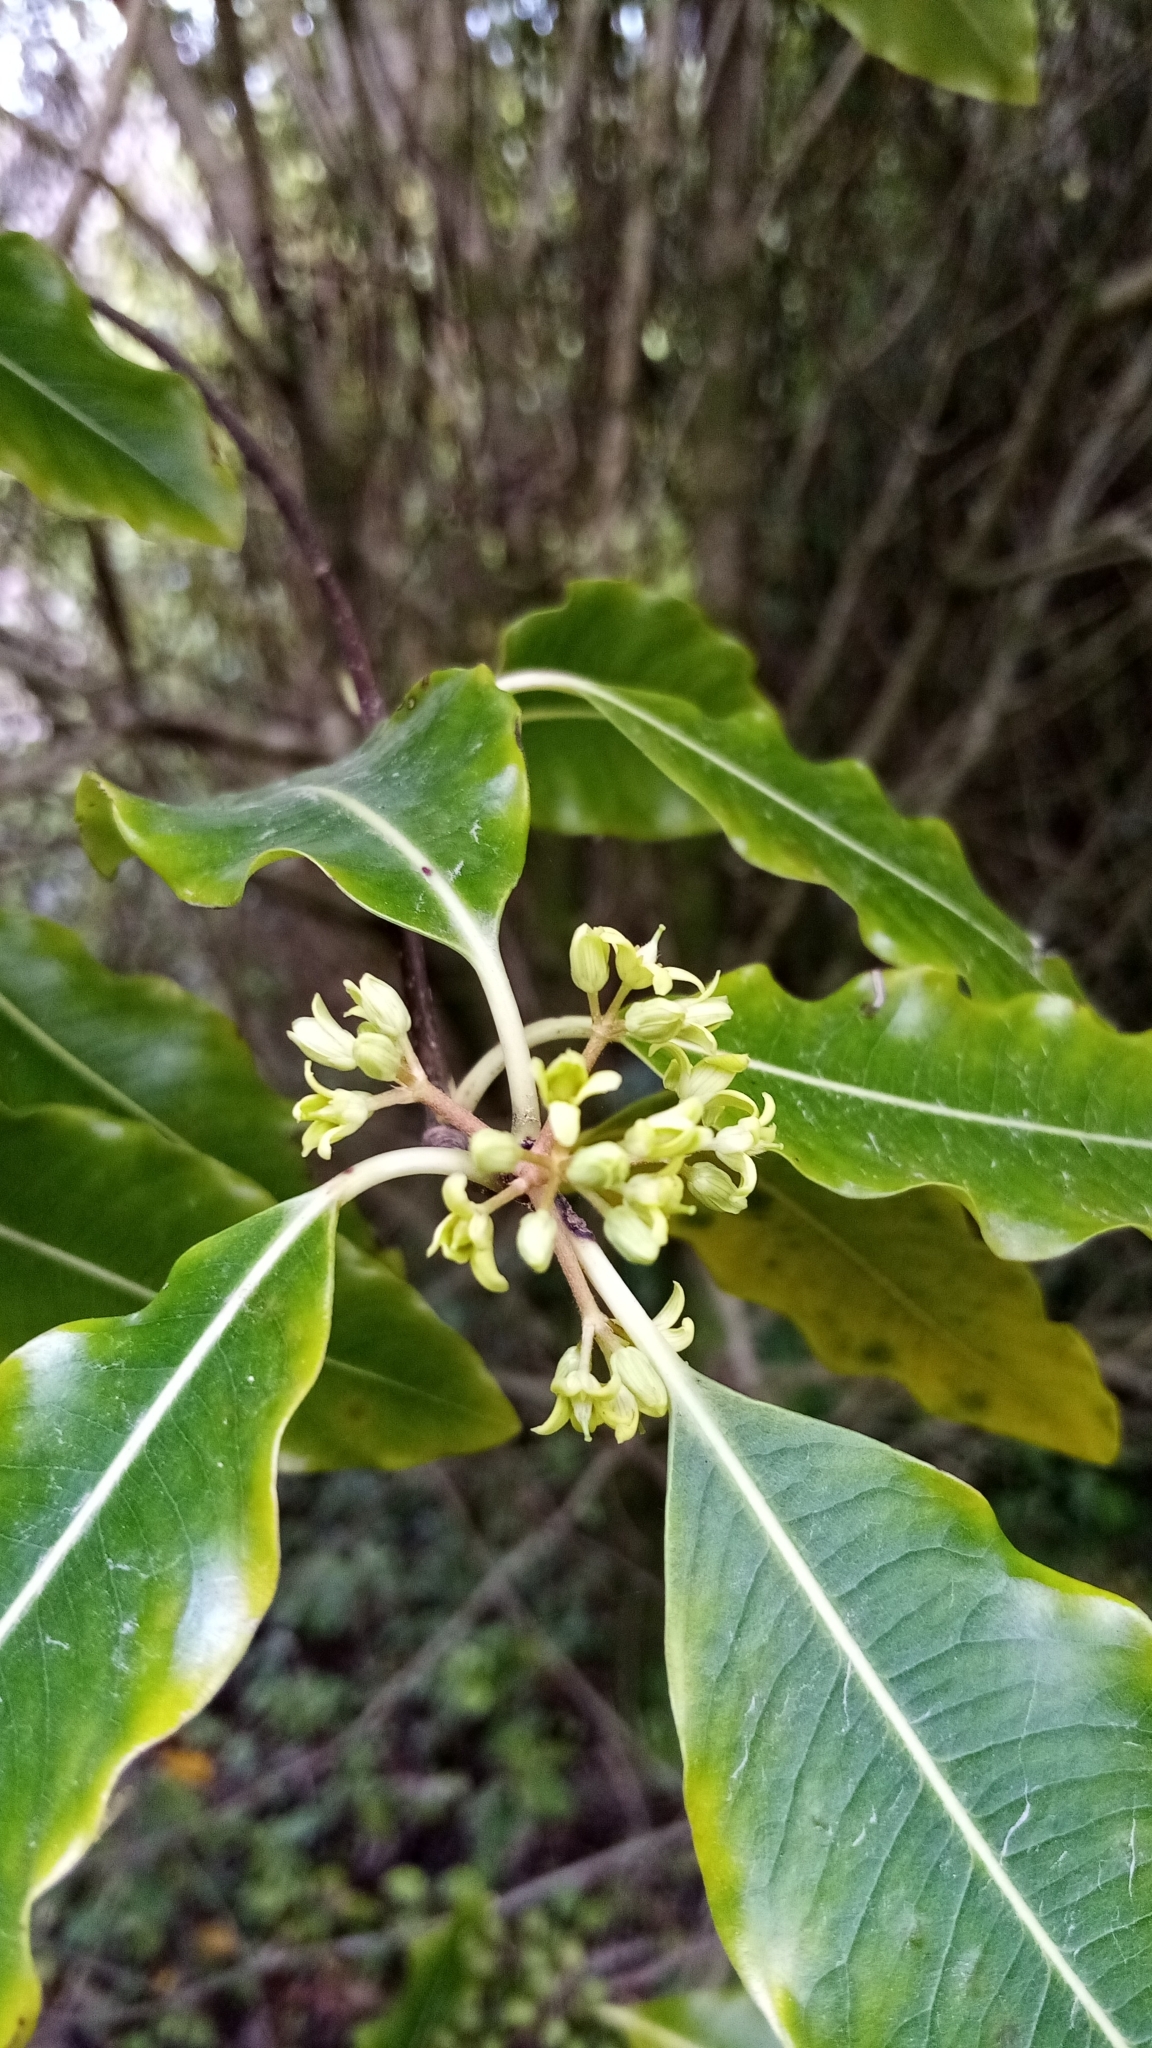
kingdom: Plantae
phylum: Tracheophyta
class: Magnoliopsida
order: Apiales
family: Pittosporaceae
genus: Pittosporum
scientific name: Pittosporum eugenioides
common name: Lemonwood
